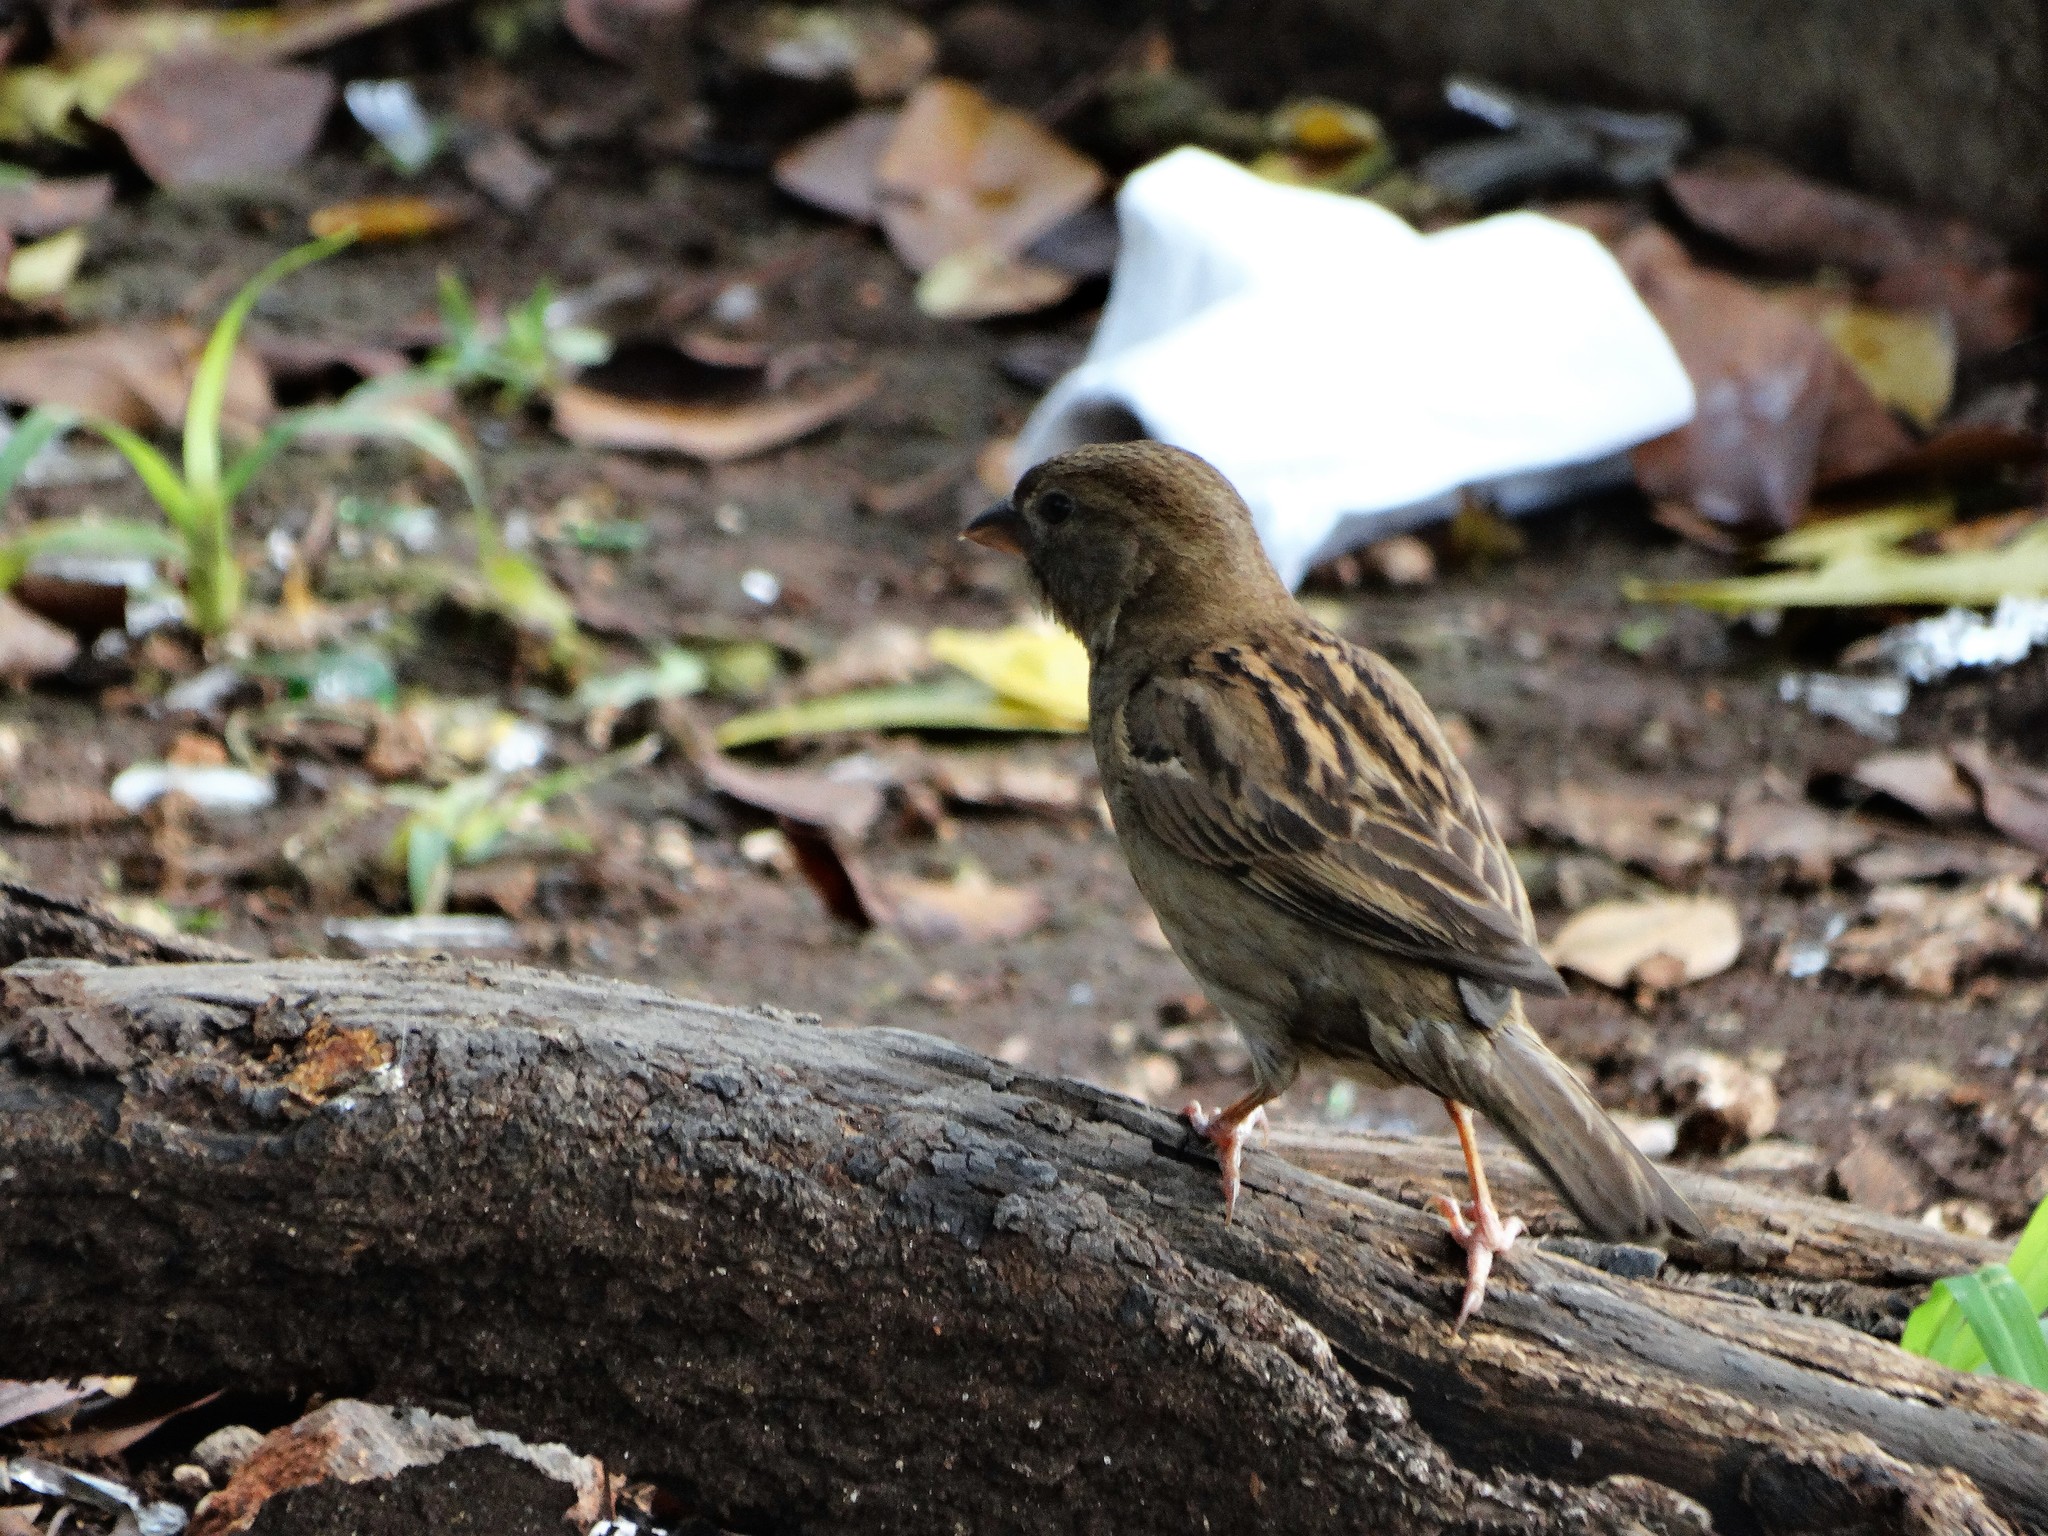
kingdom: Animalia
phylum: Chordata
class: Aves
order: Passeriformes
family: Passeridae
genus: Passer
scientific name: Passer domesticus
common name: House sparrow
